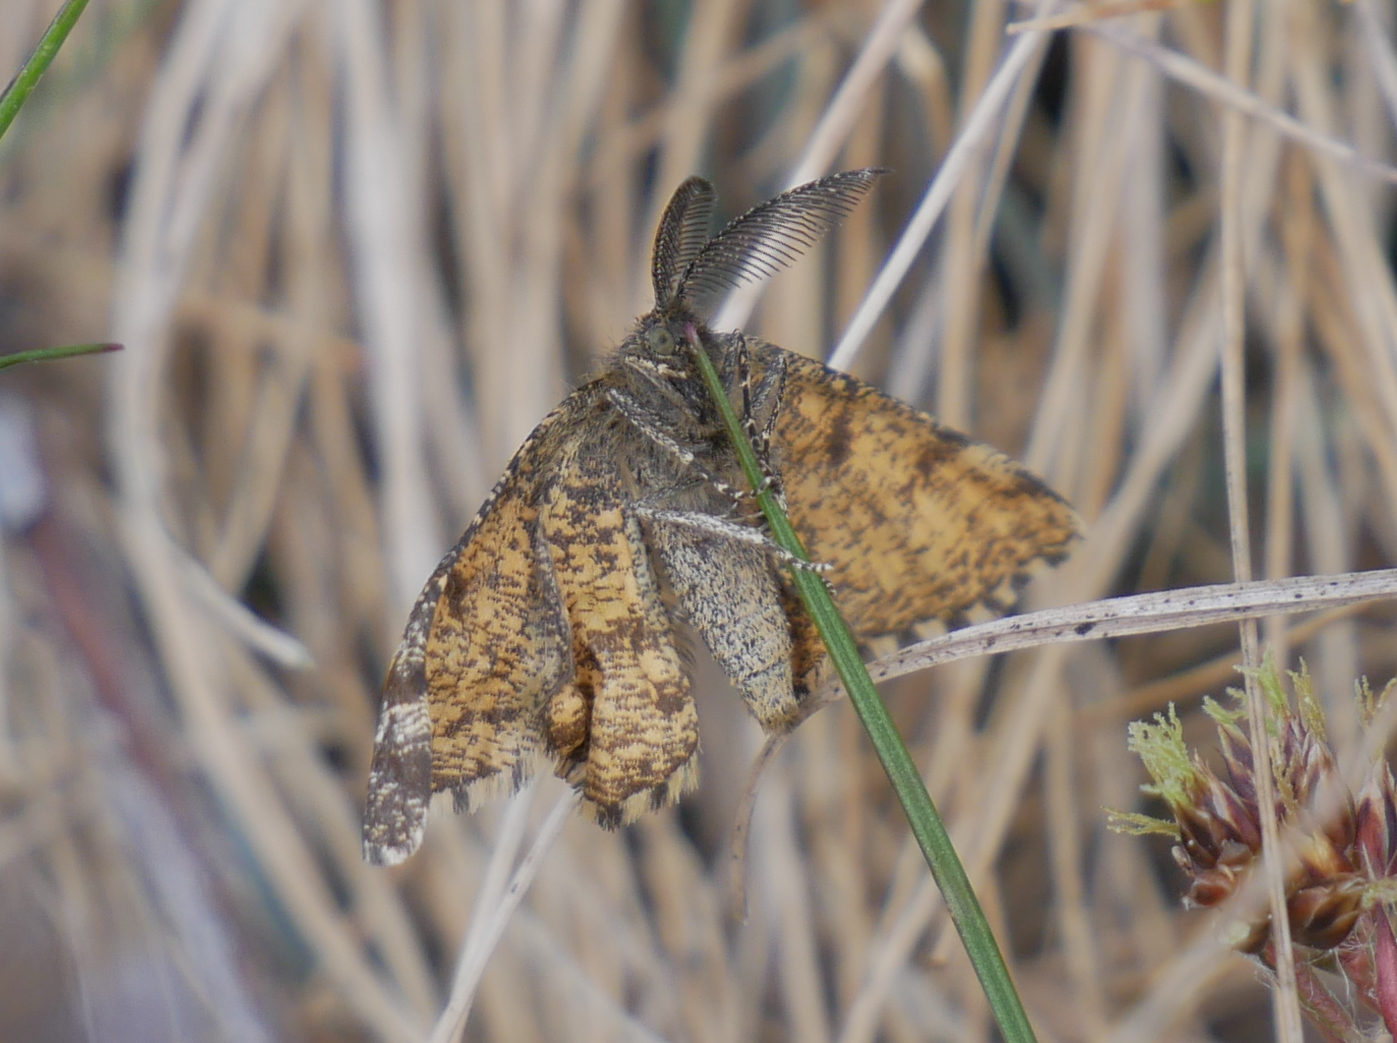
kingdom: Animalia
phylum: Arthropoda
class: Insecta
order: Lepidoptera
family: Geometridae
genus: Ematurga
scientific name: Ematurga atomaria
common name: Common heath
